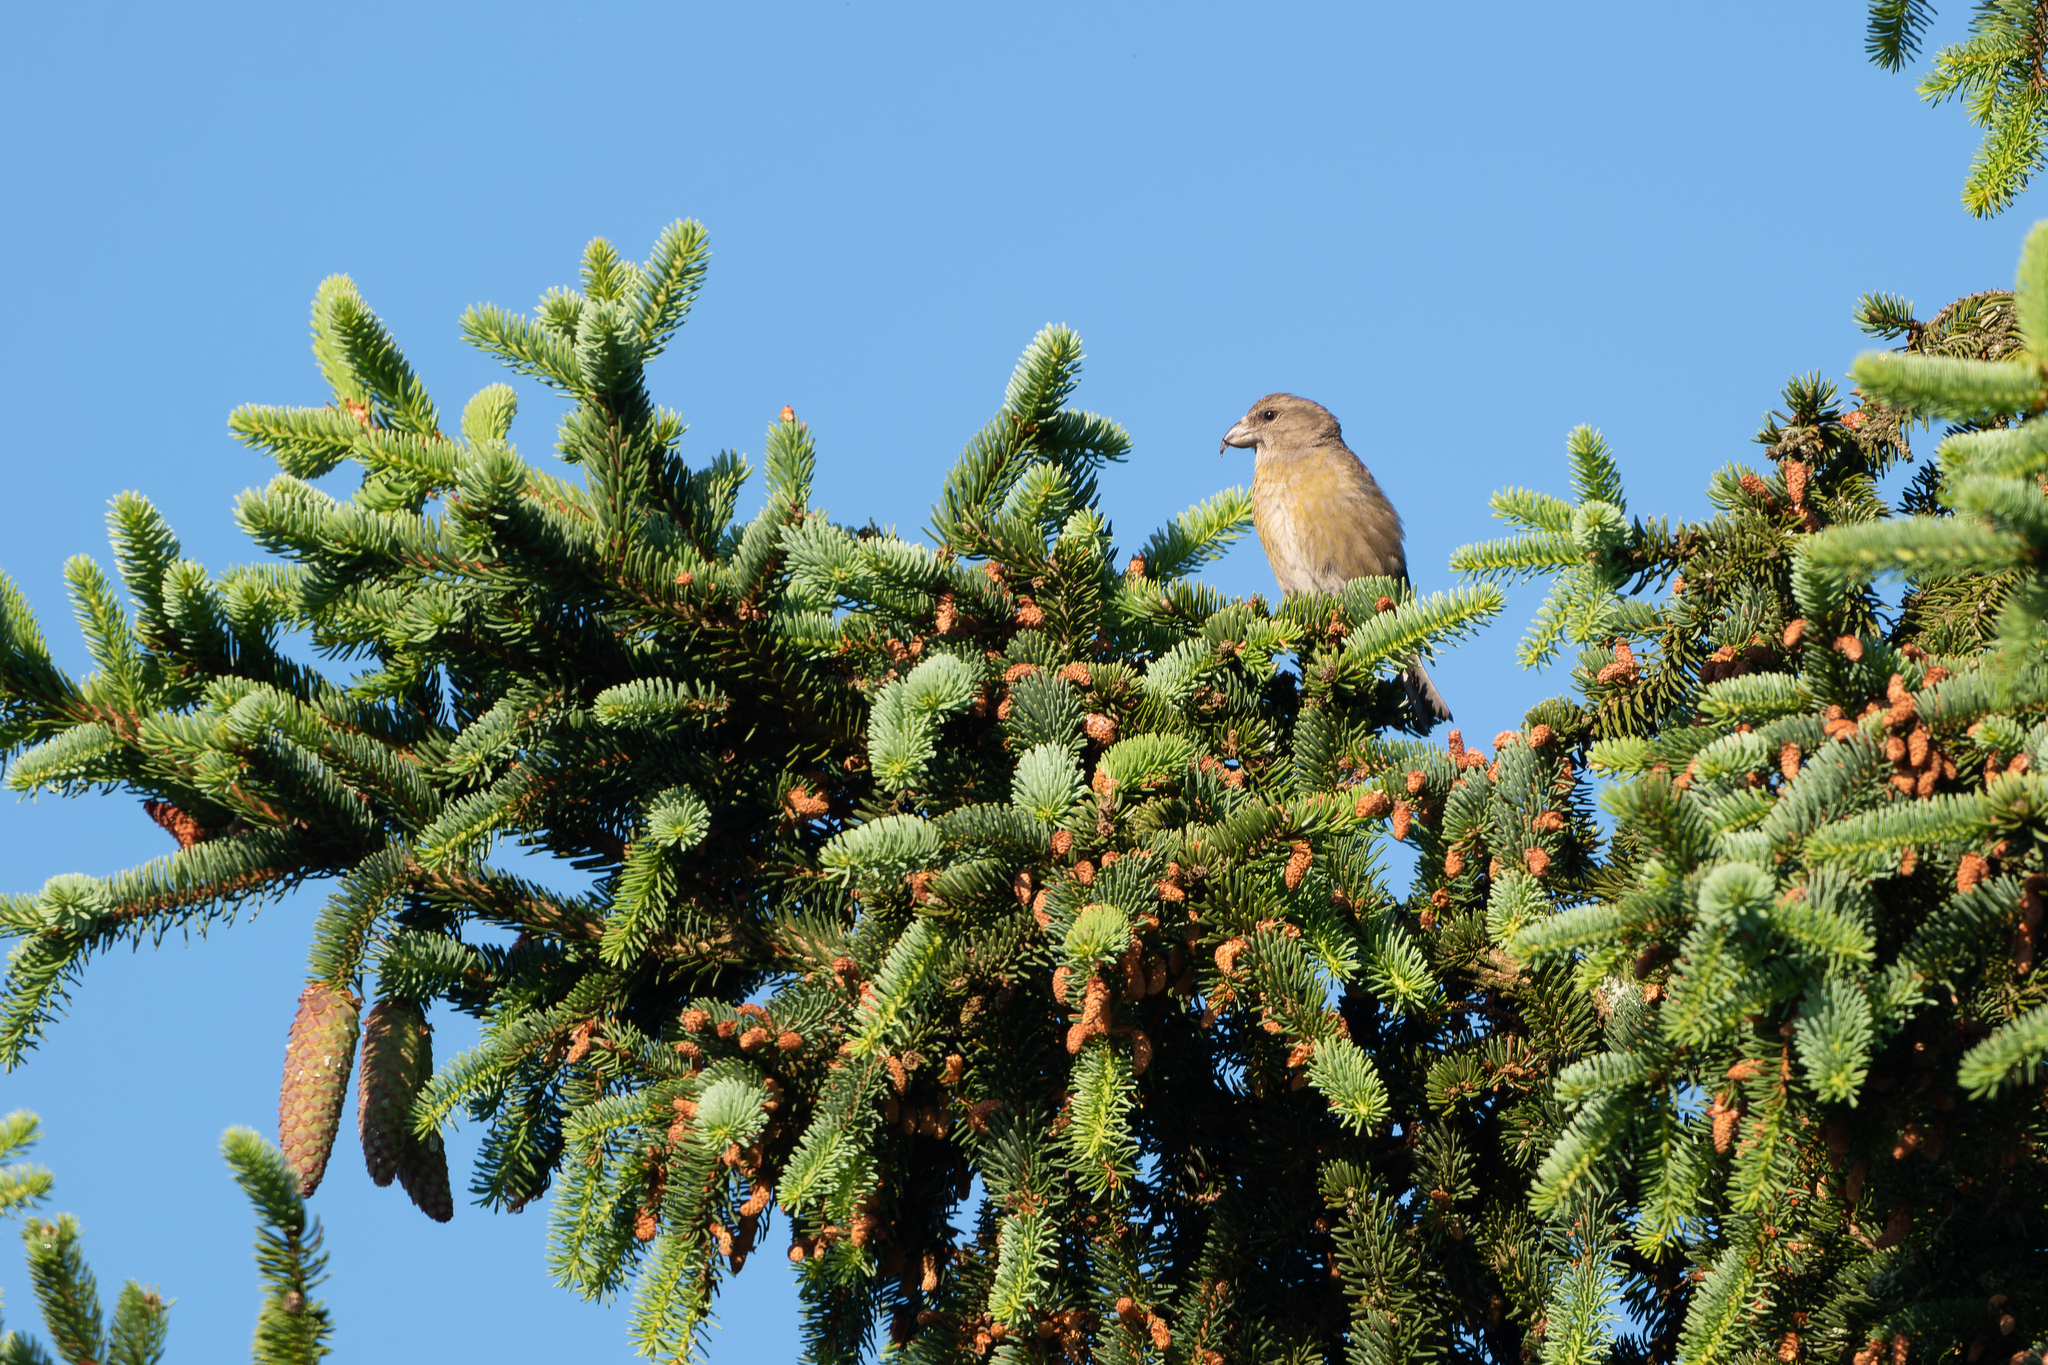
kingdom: Animalia
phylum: Chordata
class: Aves
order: Passeriformes
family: Fringillidae
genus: Loxia
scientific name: Loxia curvirostra
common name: Red crossbill
